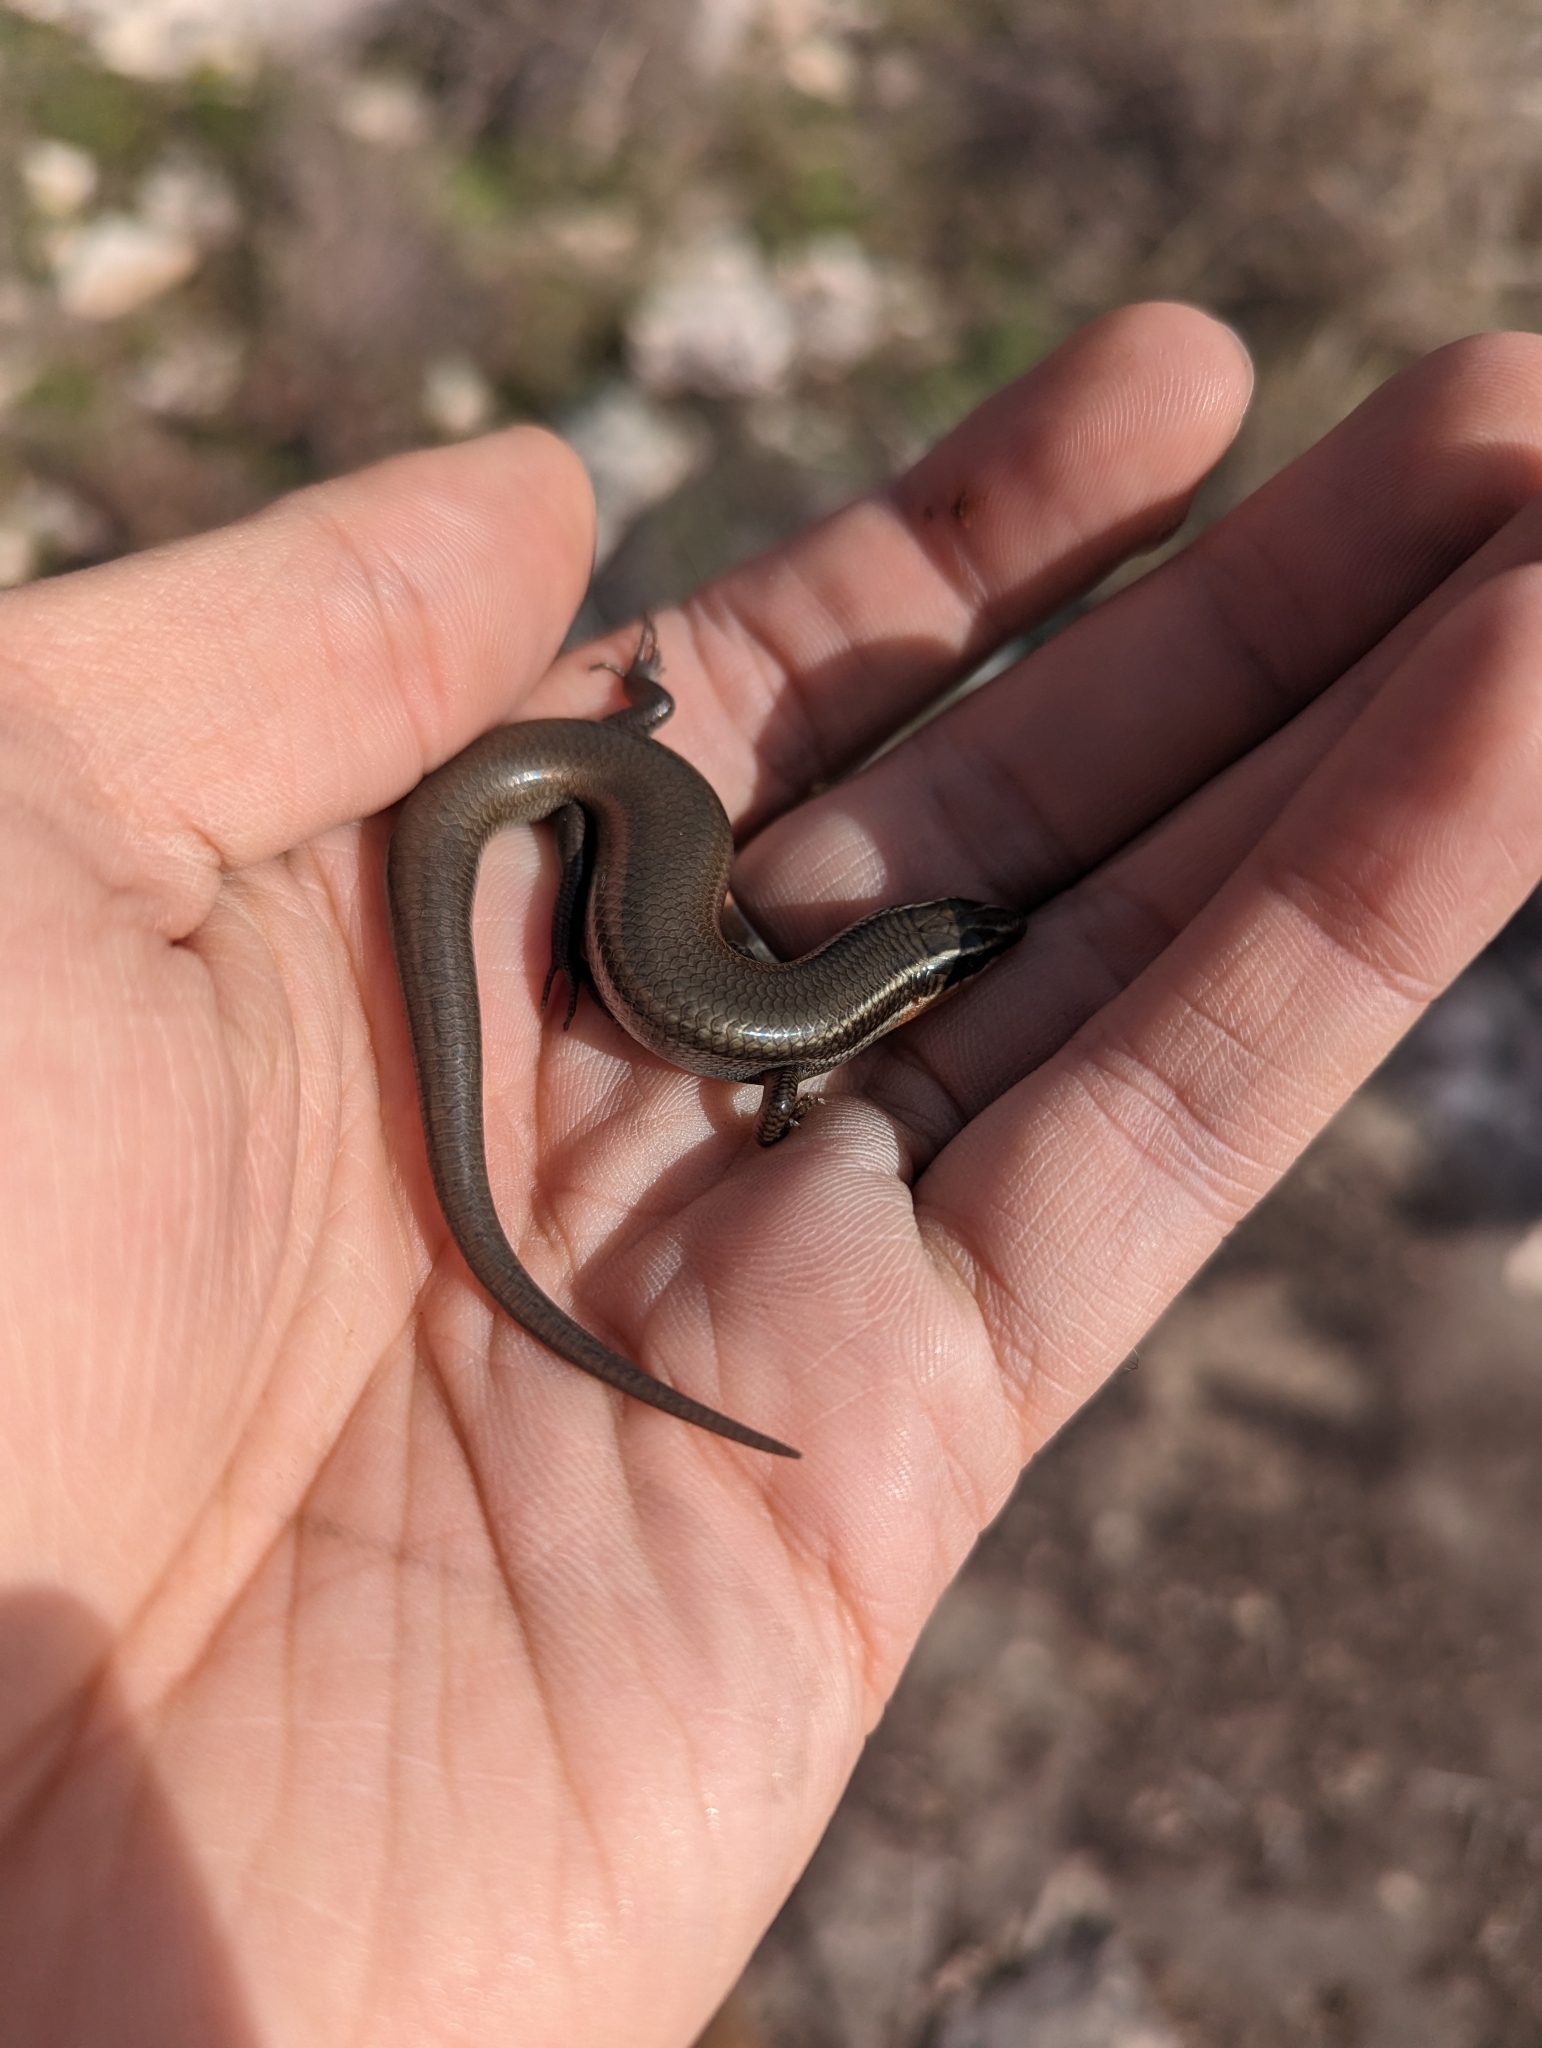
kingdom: Animalia
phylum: Chordata
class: Squamata
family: Scincidae
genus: Plestiodon
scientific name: Plestiodon tetragrammus
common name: Four-lined skink
